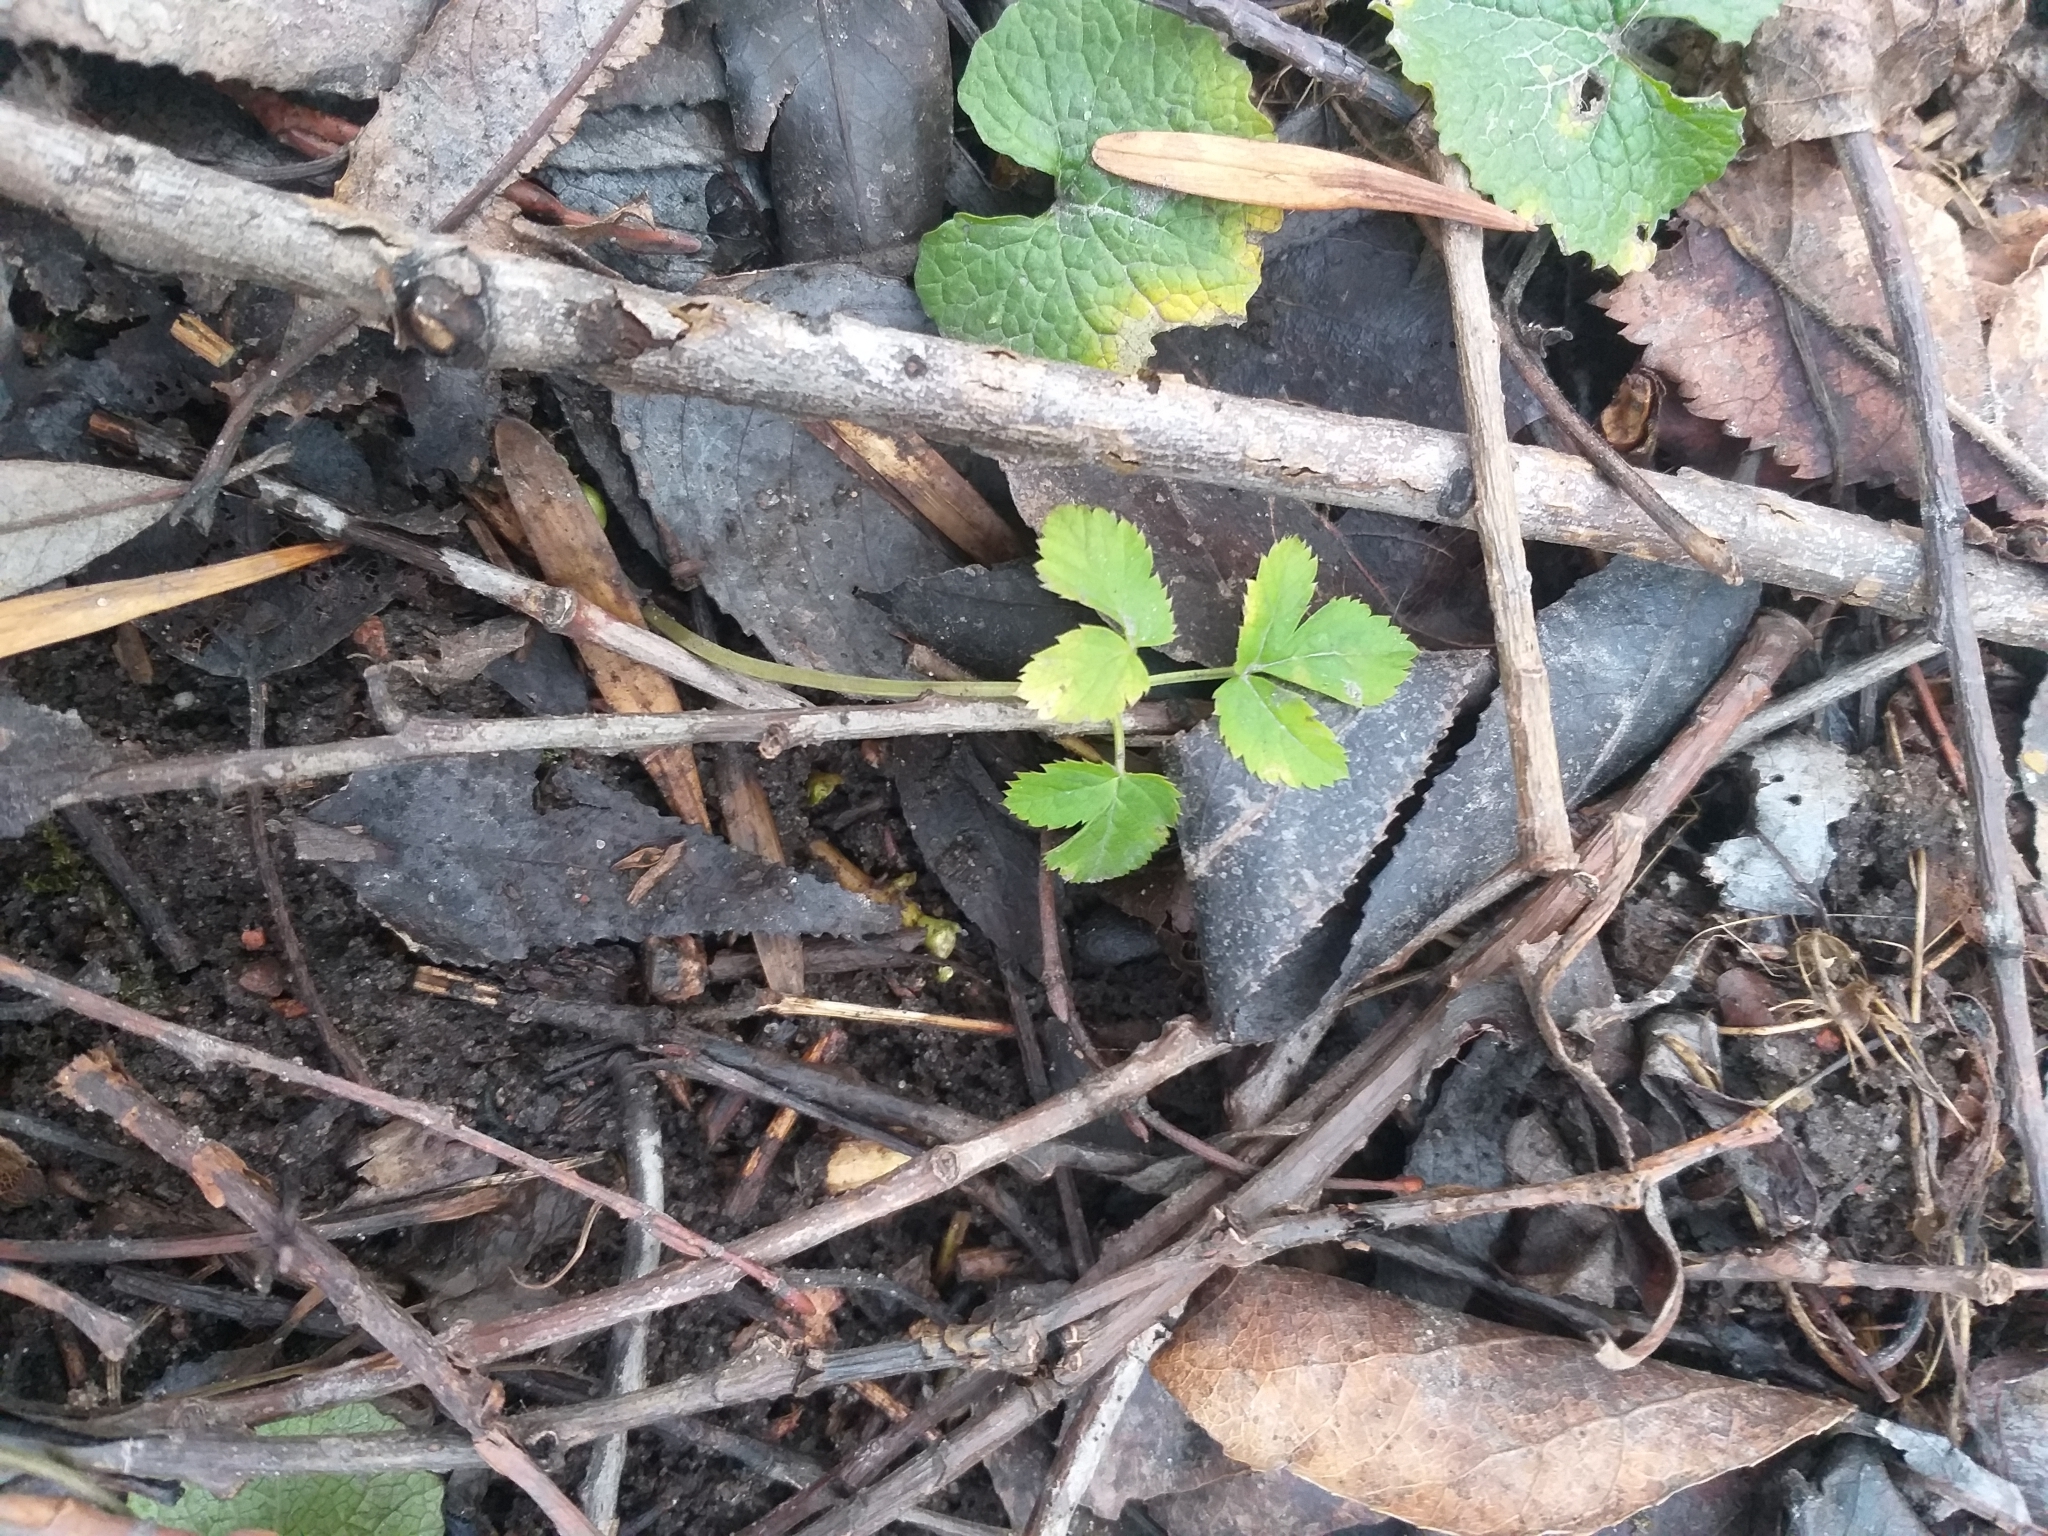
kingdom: Plantae
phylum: Tracheophyta
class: Magnoliopsida
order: Apiales
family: Apiaceae
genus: Aegopodium
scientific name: Aegopodium podagraria
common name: Ground-elder
